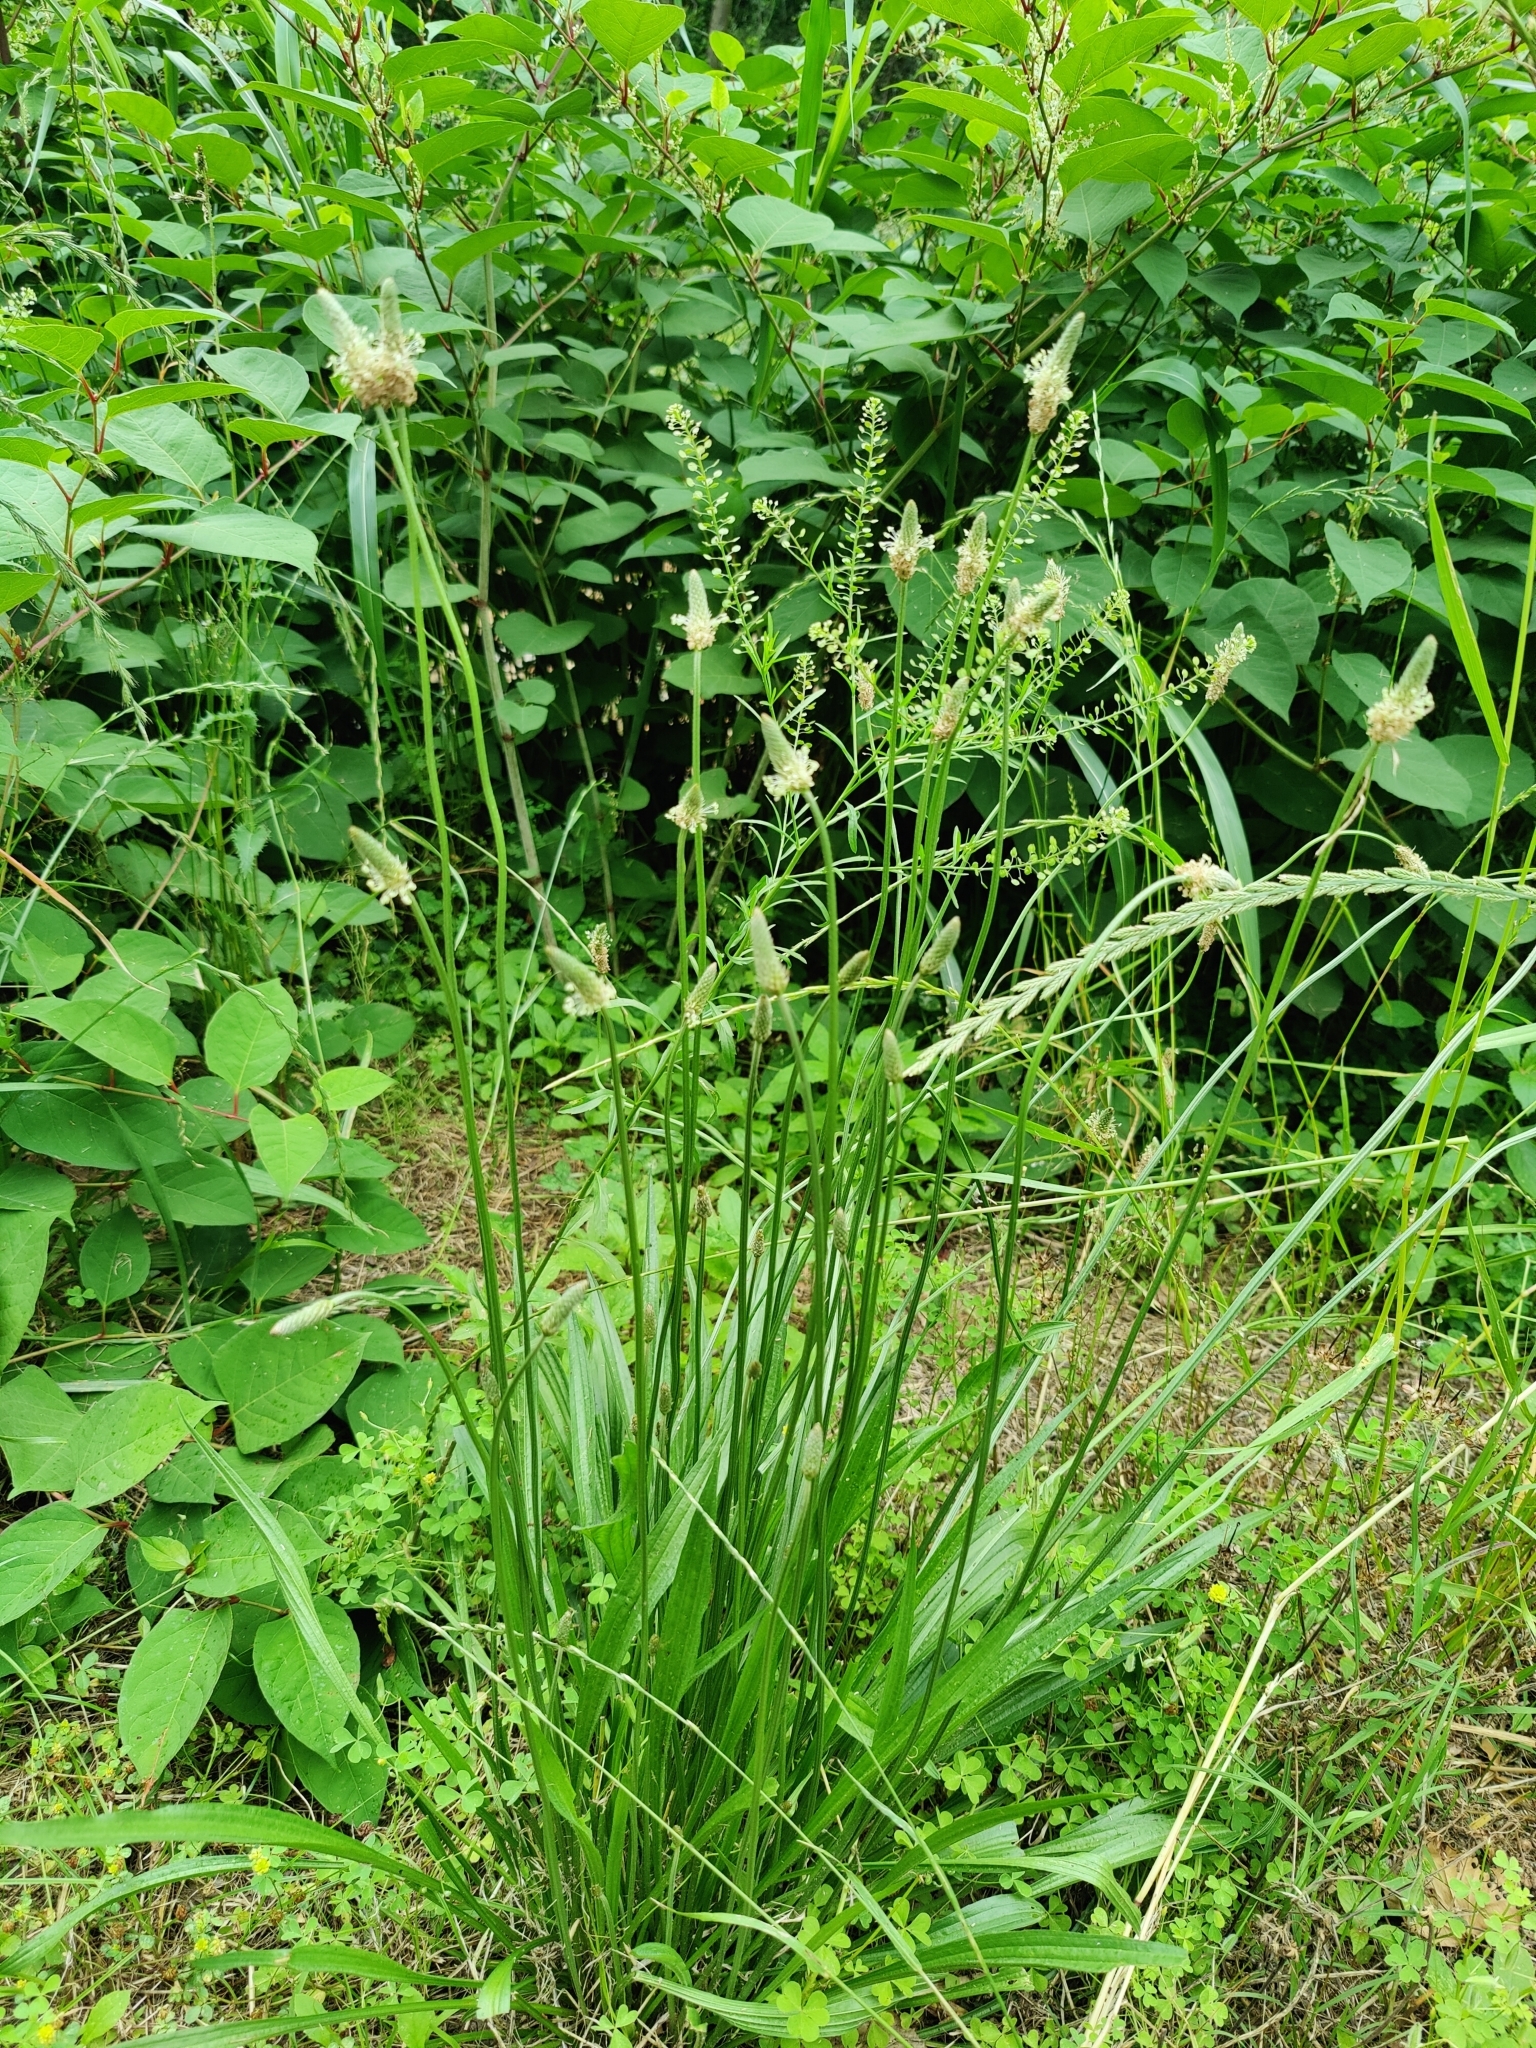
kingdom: Plantae
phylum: Tracheophyta
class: Magnoliopsida
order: Lamiales
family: Plantaginaceae
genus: Plantago
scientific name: Plantago lanceolata
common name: Ribwort plantain
